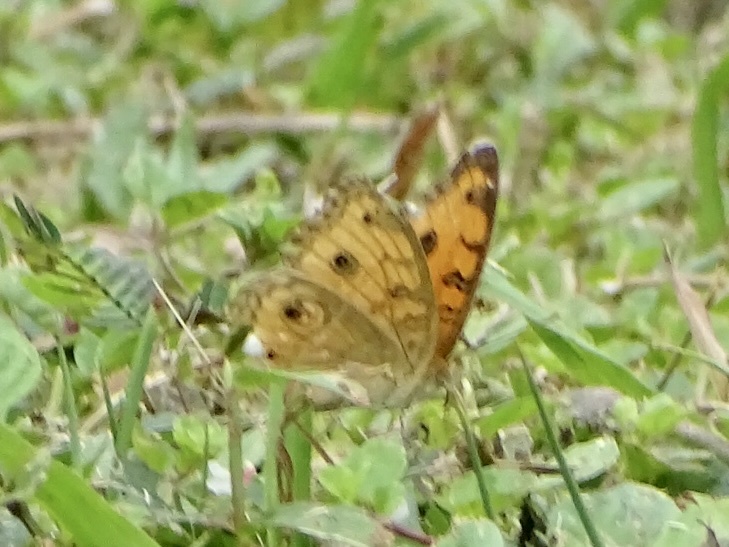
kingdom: Animalia
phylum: Arthropoda
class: Insecta
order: Lepidoptera
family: Nymphalidae
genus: Junonia
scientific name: Junonia almana
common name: Peacock pansy
